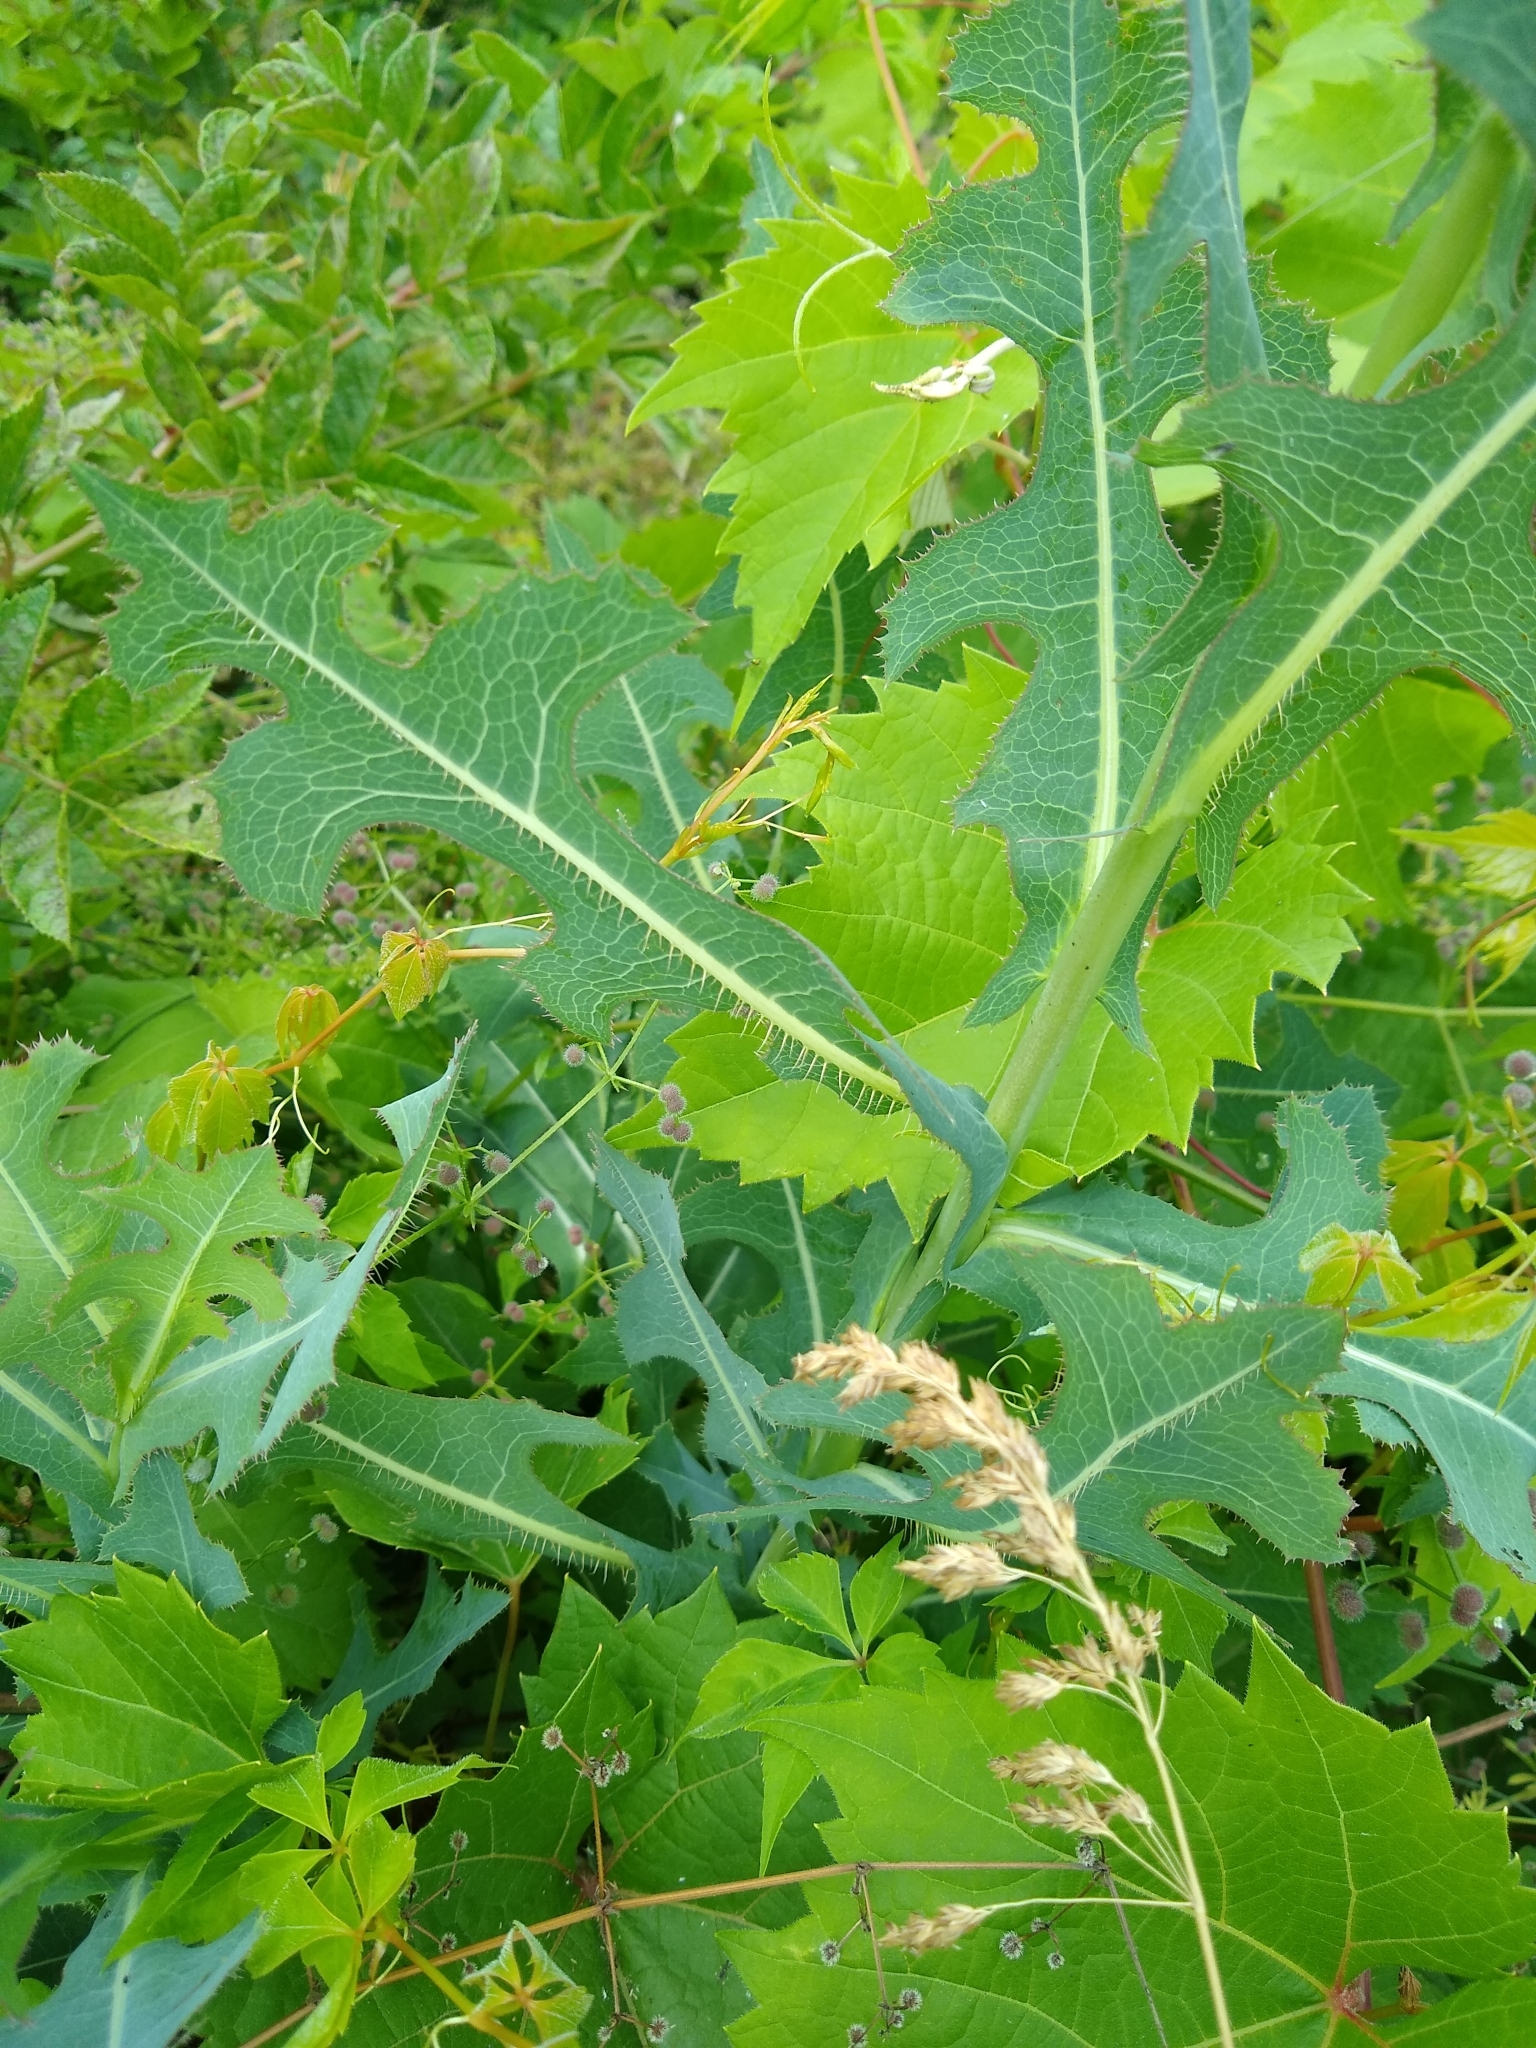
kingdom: Plantae
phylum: Tracheophyta
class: Magnoliopsida
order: Asterales
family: Asteraceae
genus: Lactuca
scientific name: Lactuca serriola
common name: Prickly lettuce
